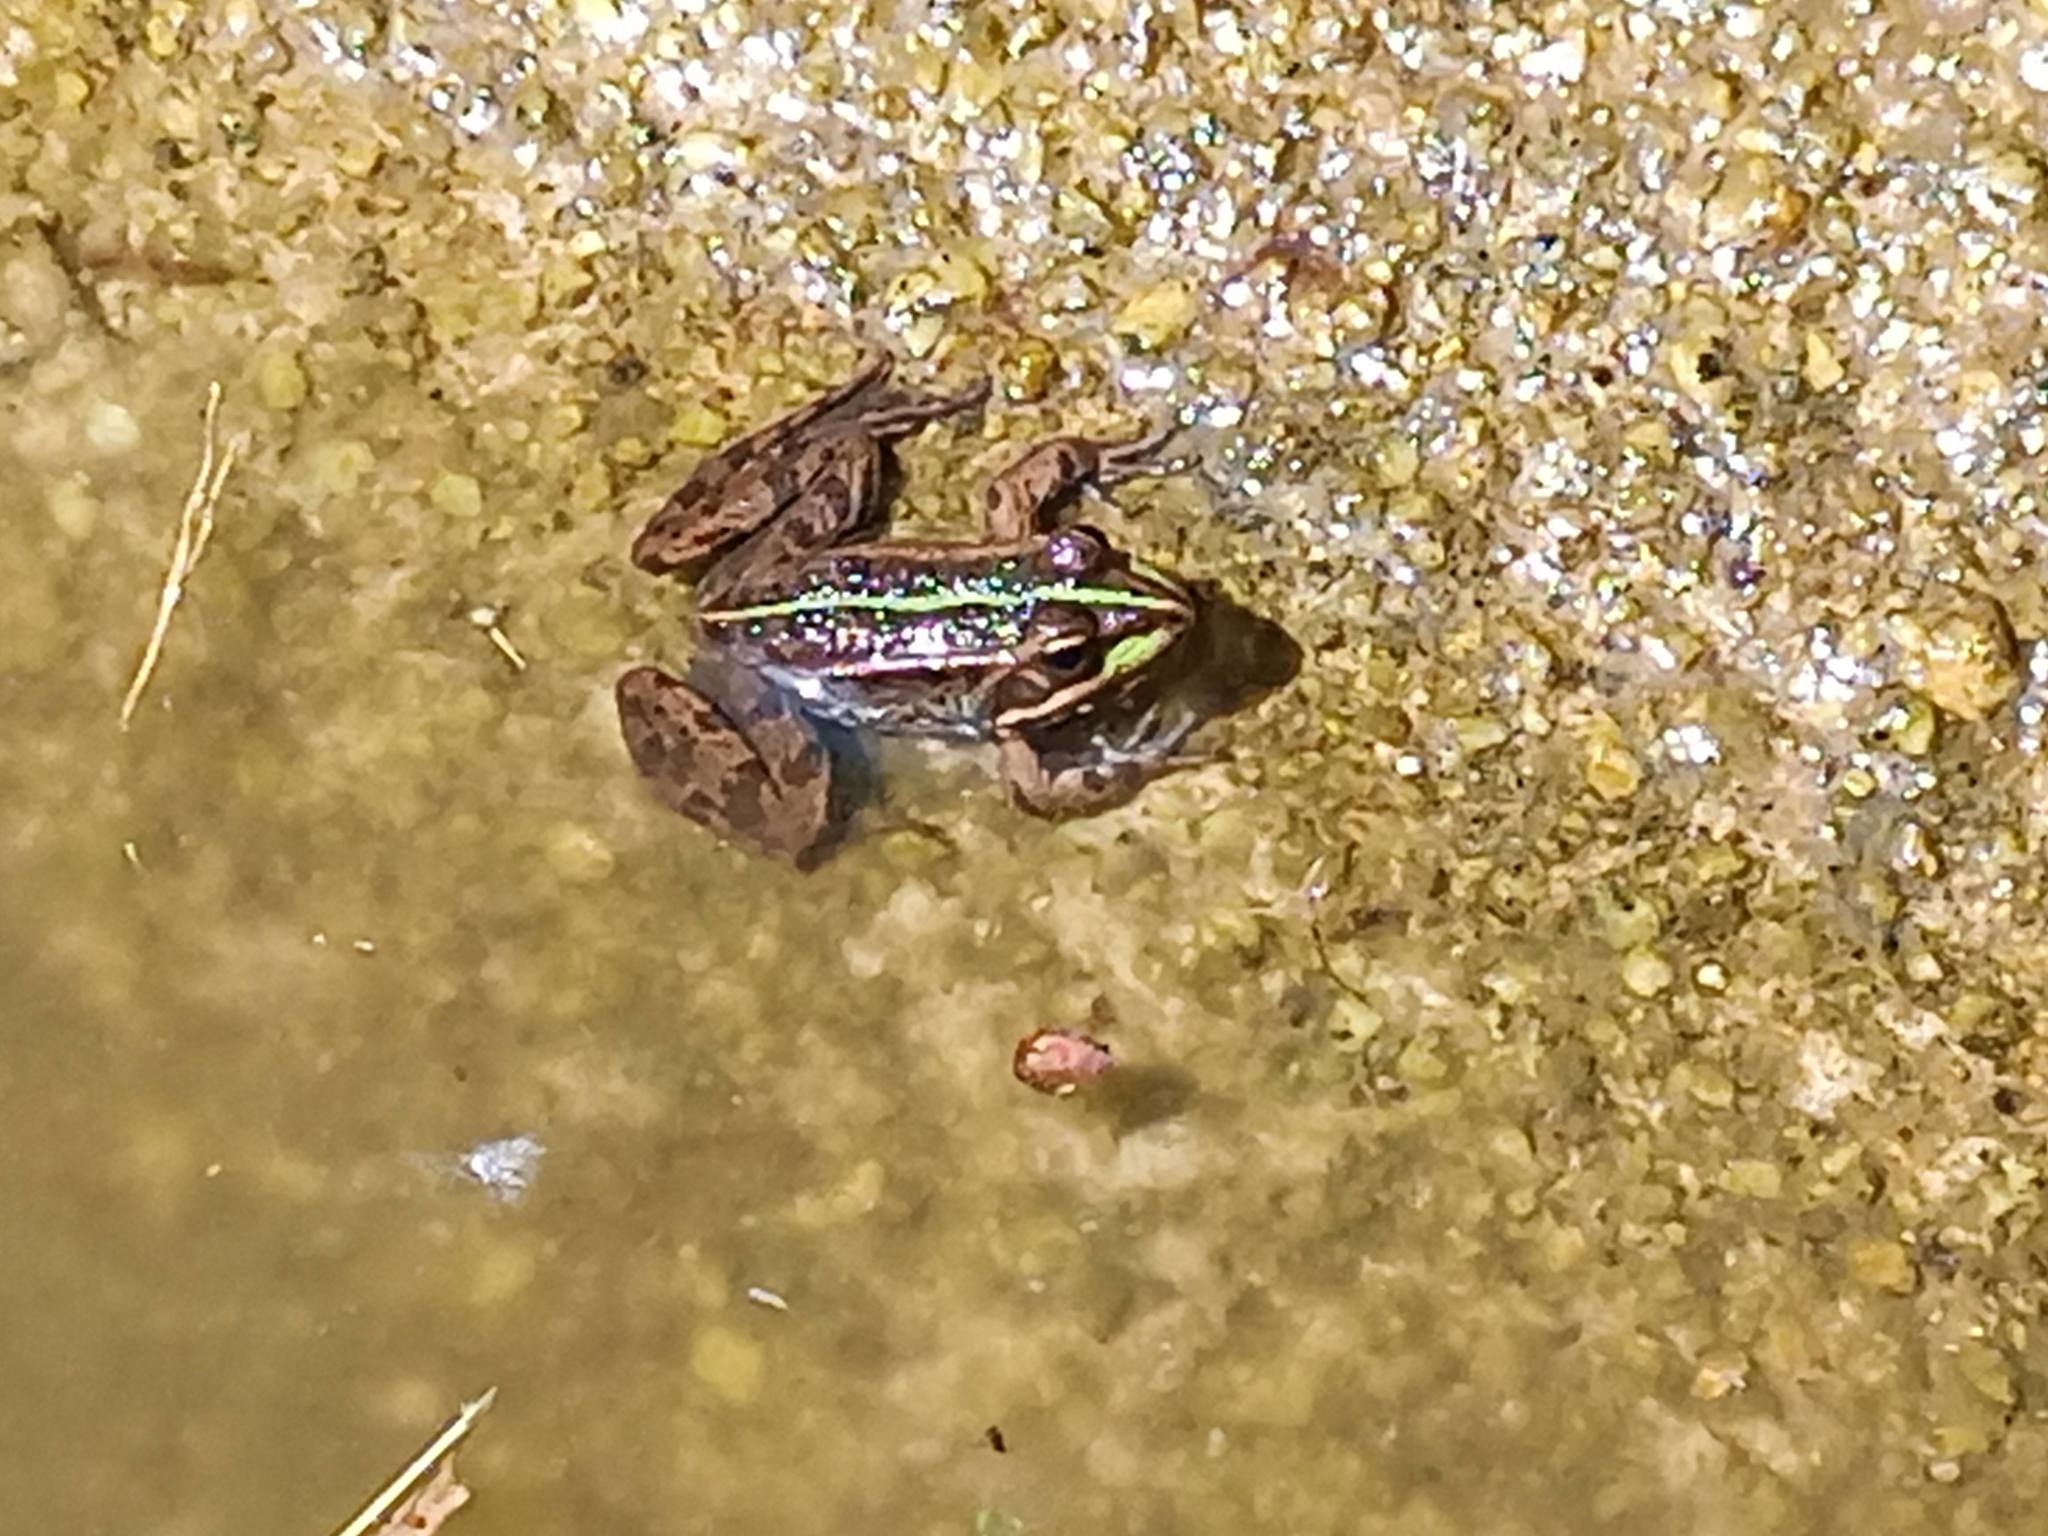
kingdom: Animalia
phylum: Chordata
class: Amphibia
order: Anura
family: Ranidae
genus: Pelophylax
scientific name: Pelophylax perezi
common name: Perez's frog
